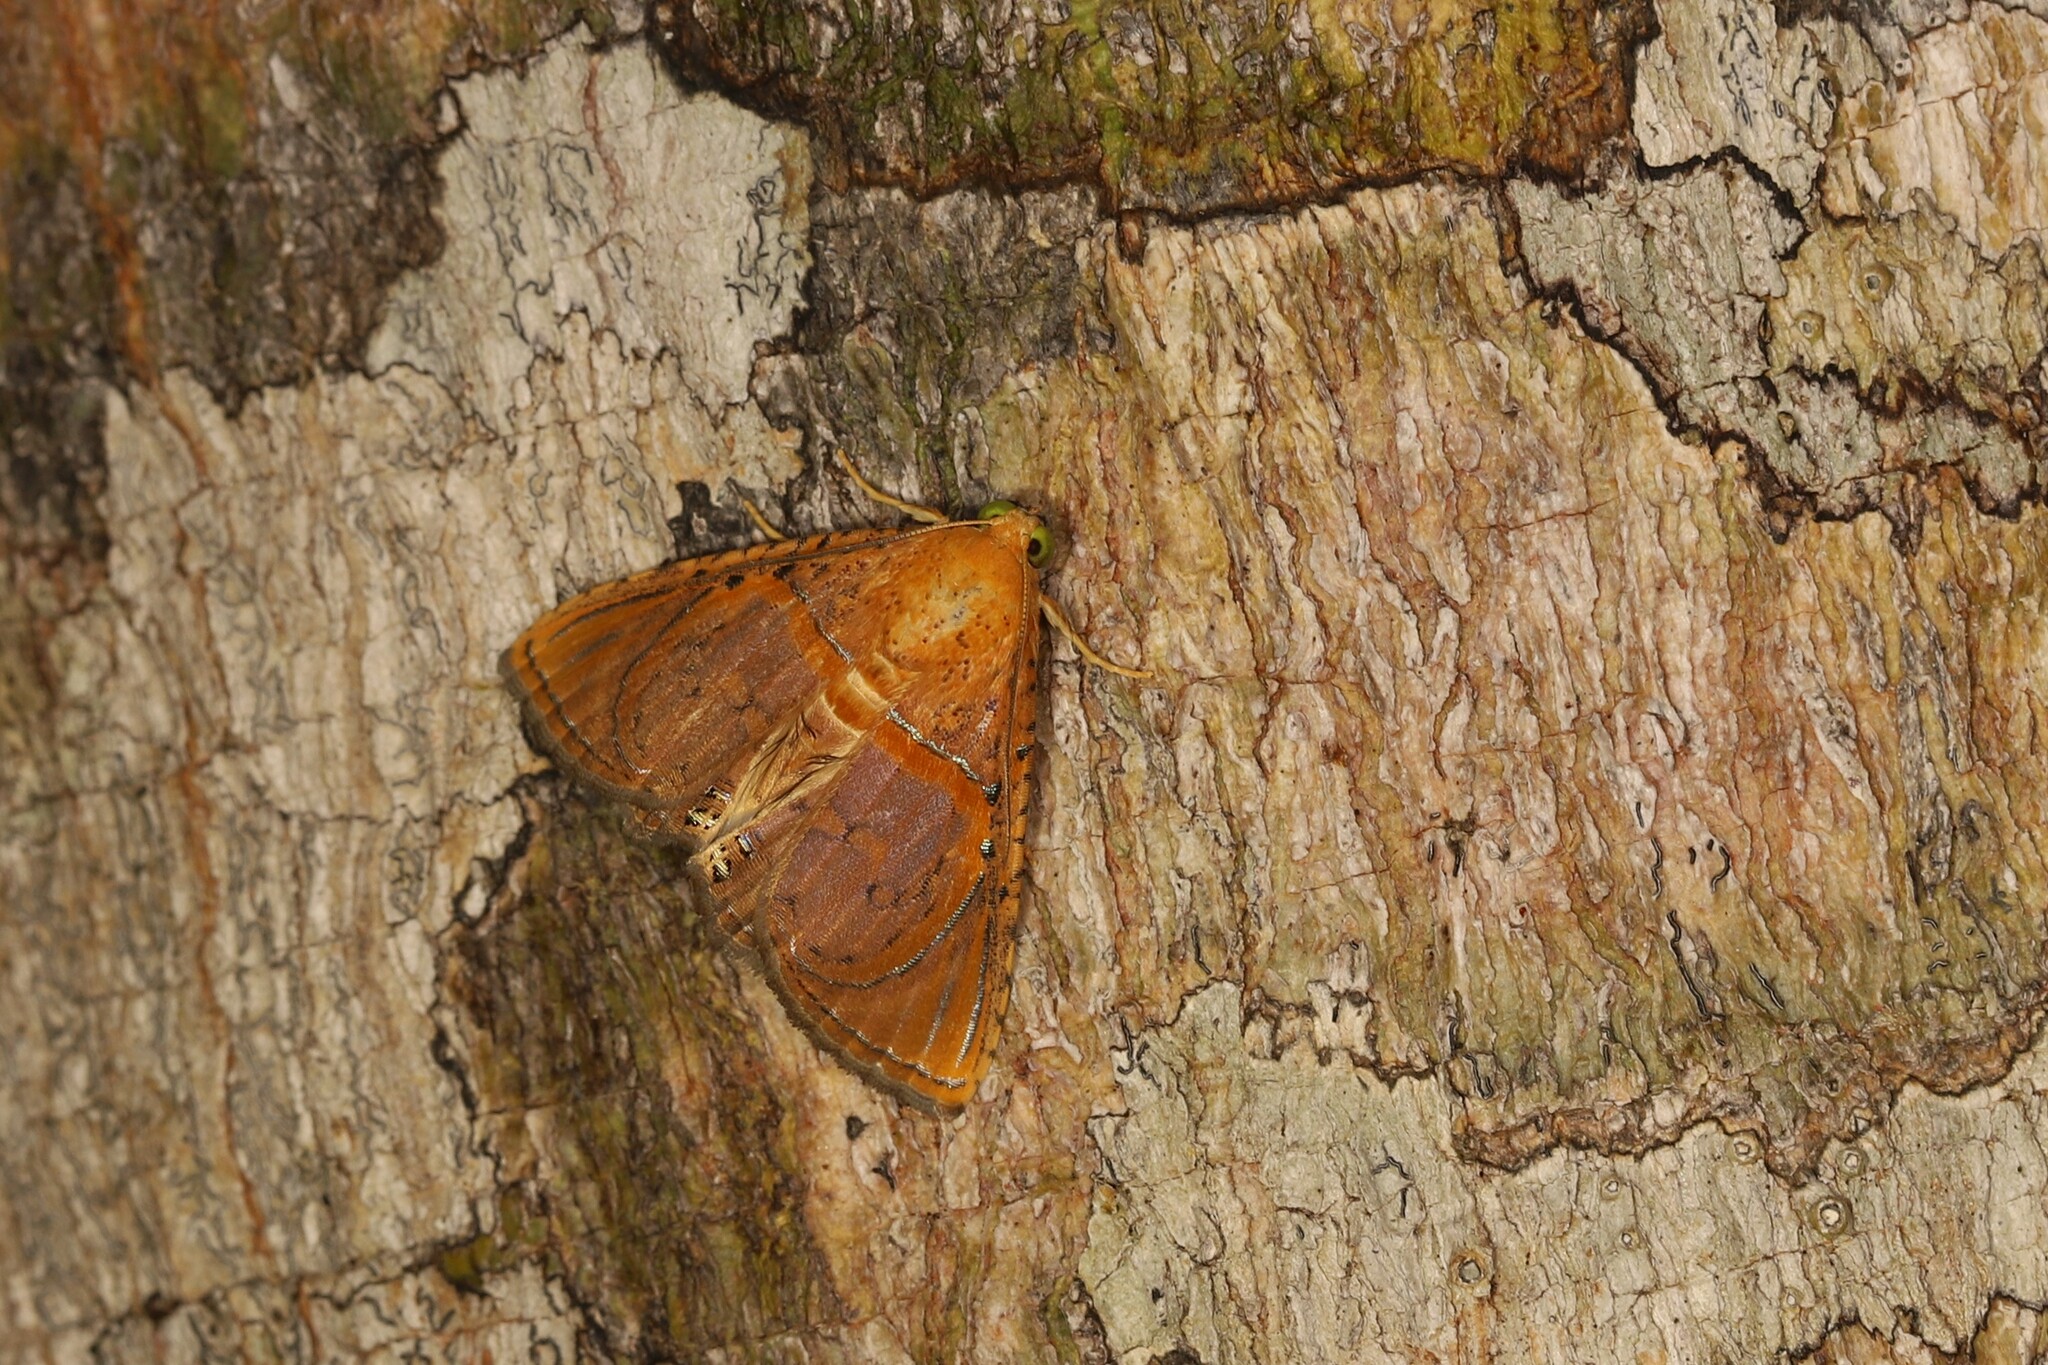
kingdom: Animalia
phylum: Arthropoda
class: Insecta
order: Lepidoptera
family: Erebidae
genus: Calydia
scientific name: Calydia bourgaulti
